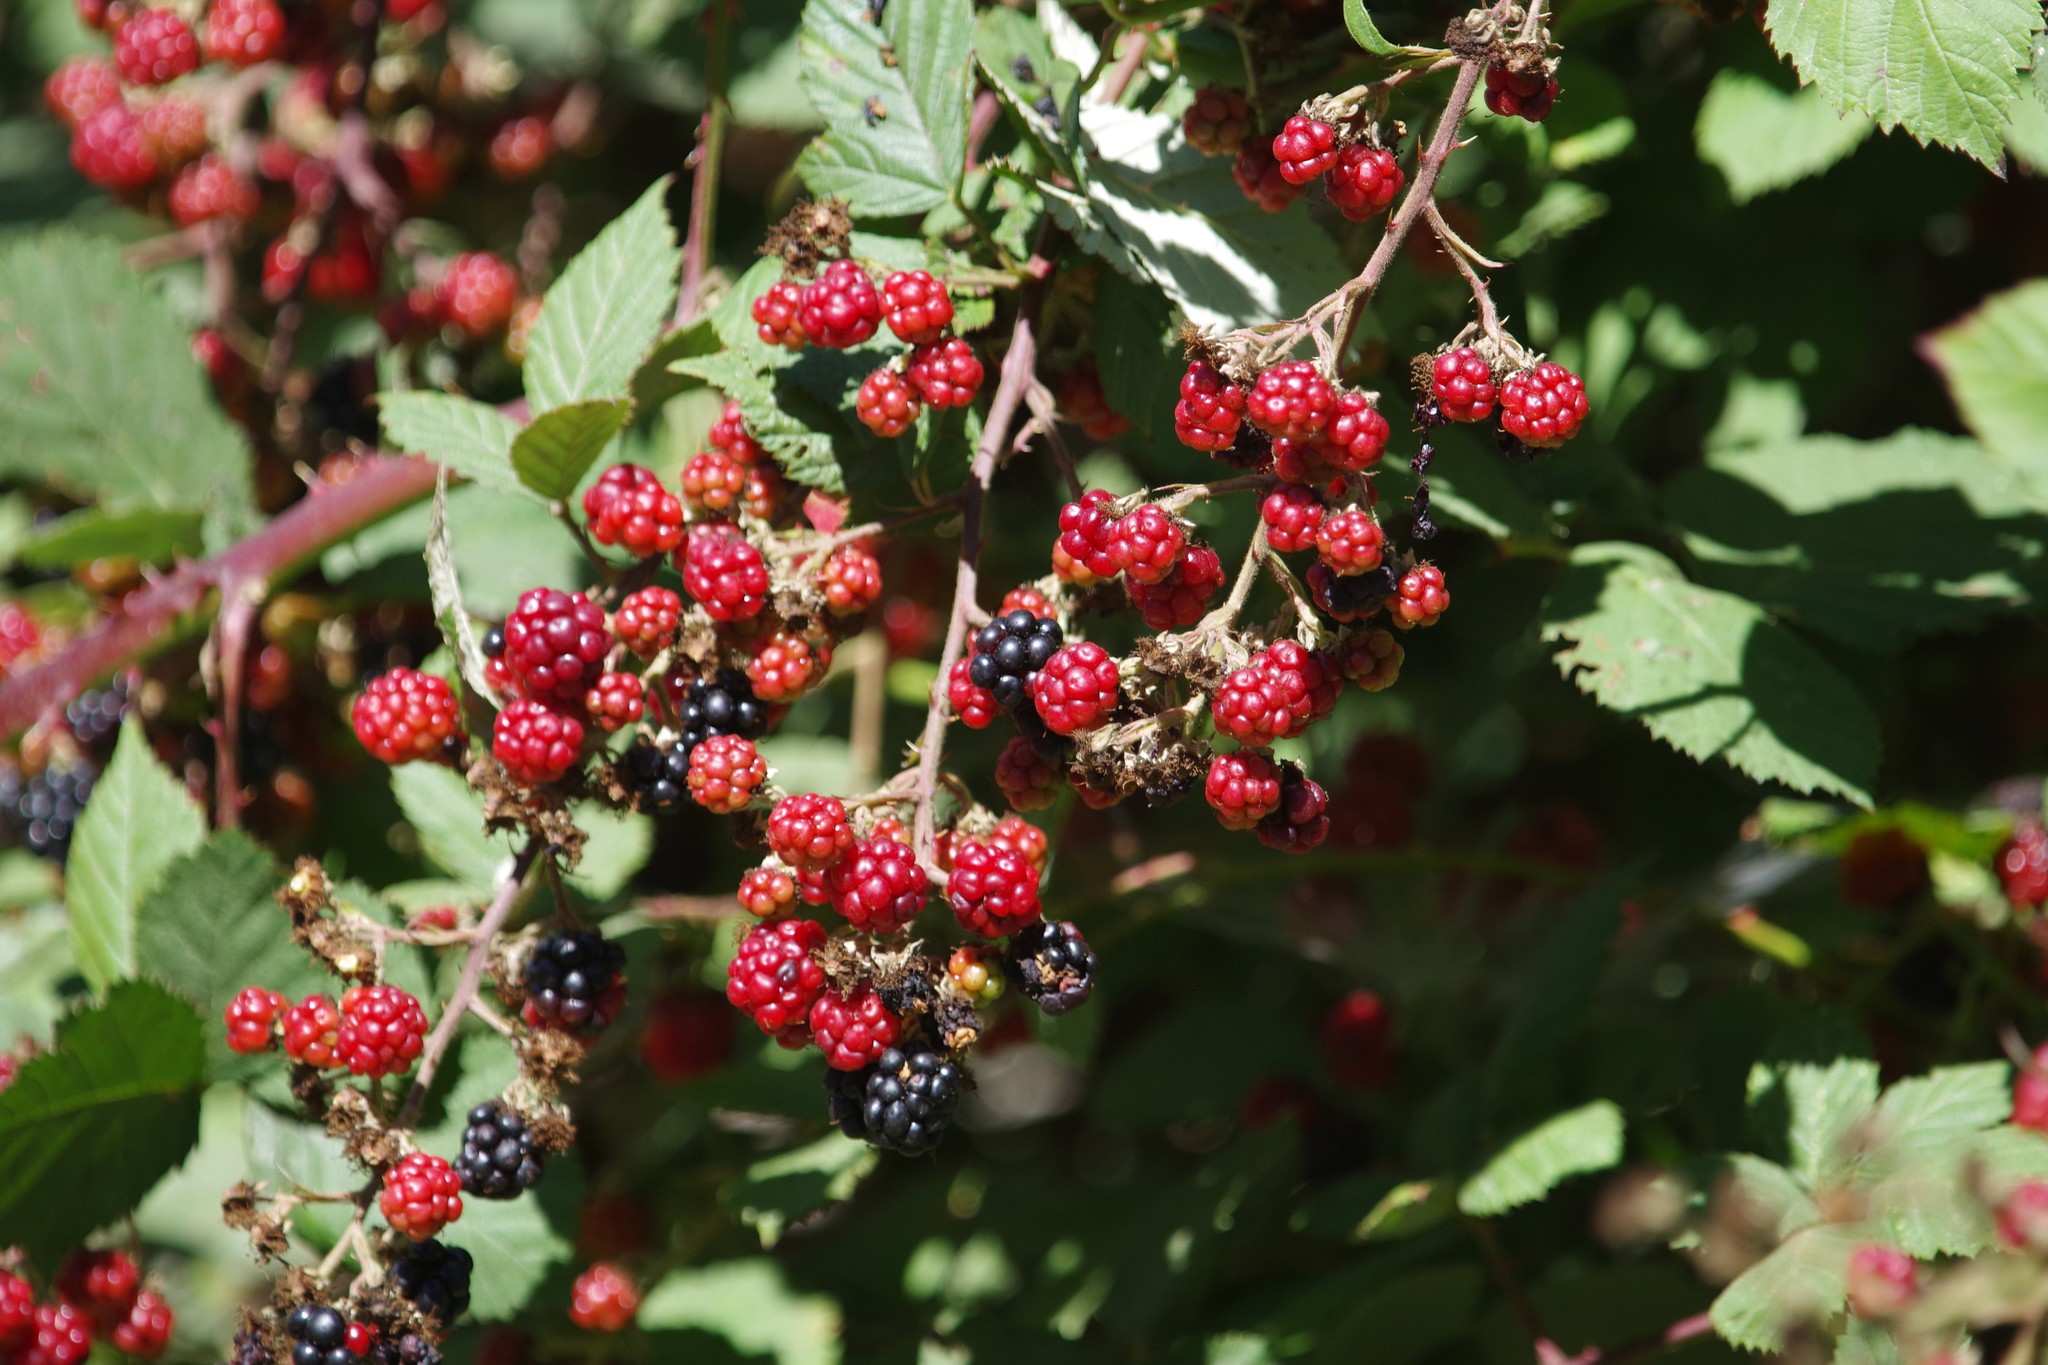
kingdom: Plantae
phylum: Tracheophyta
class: Magnoliopsida
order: Rosales
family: Rosaceae
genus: Rubus
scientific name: Rubus ursinus
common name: Pacific blackberry
